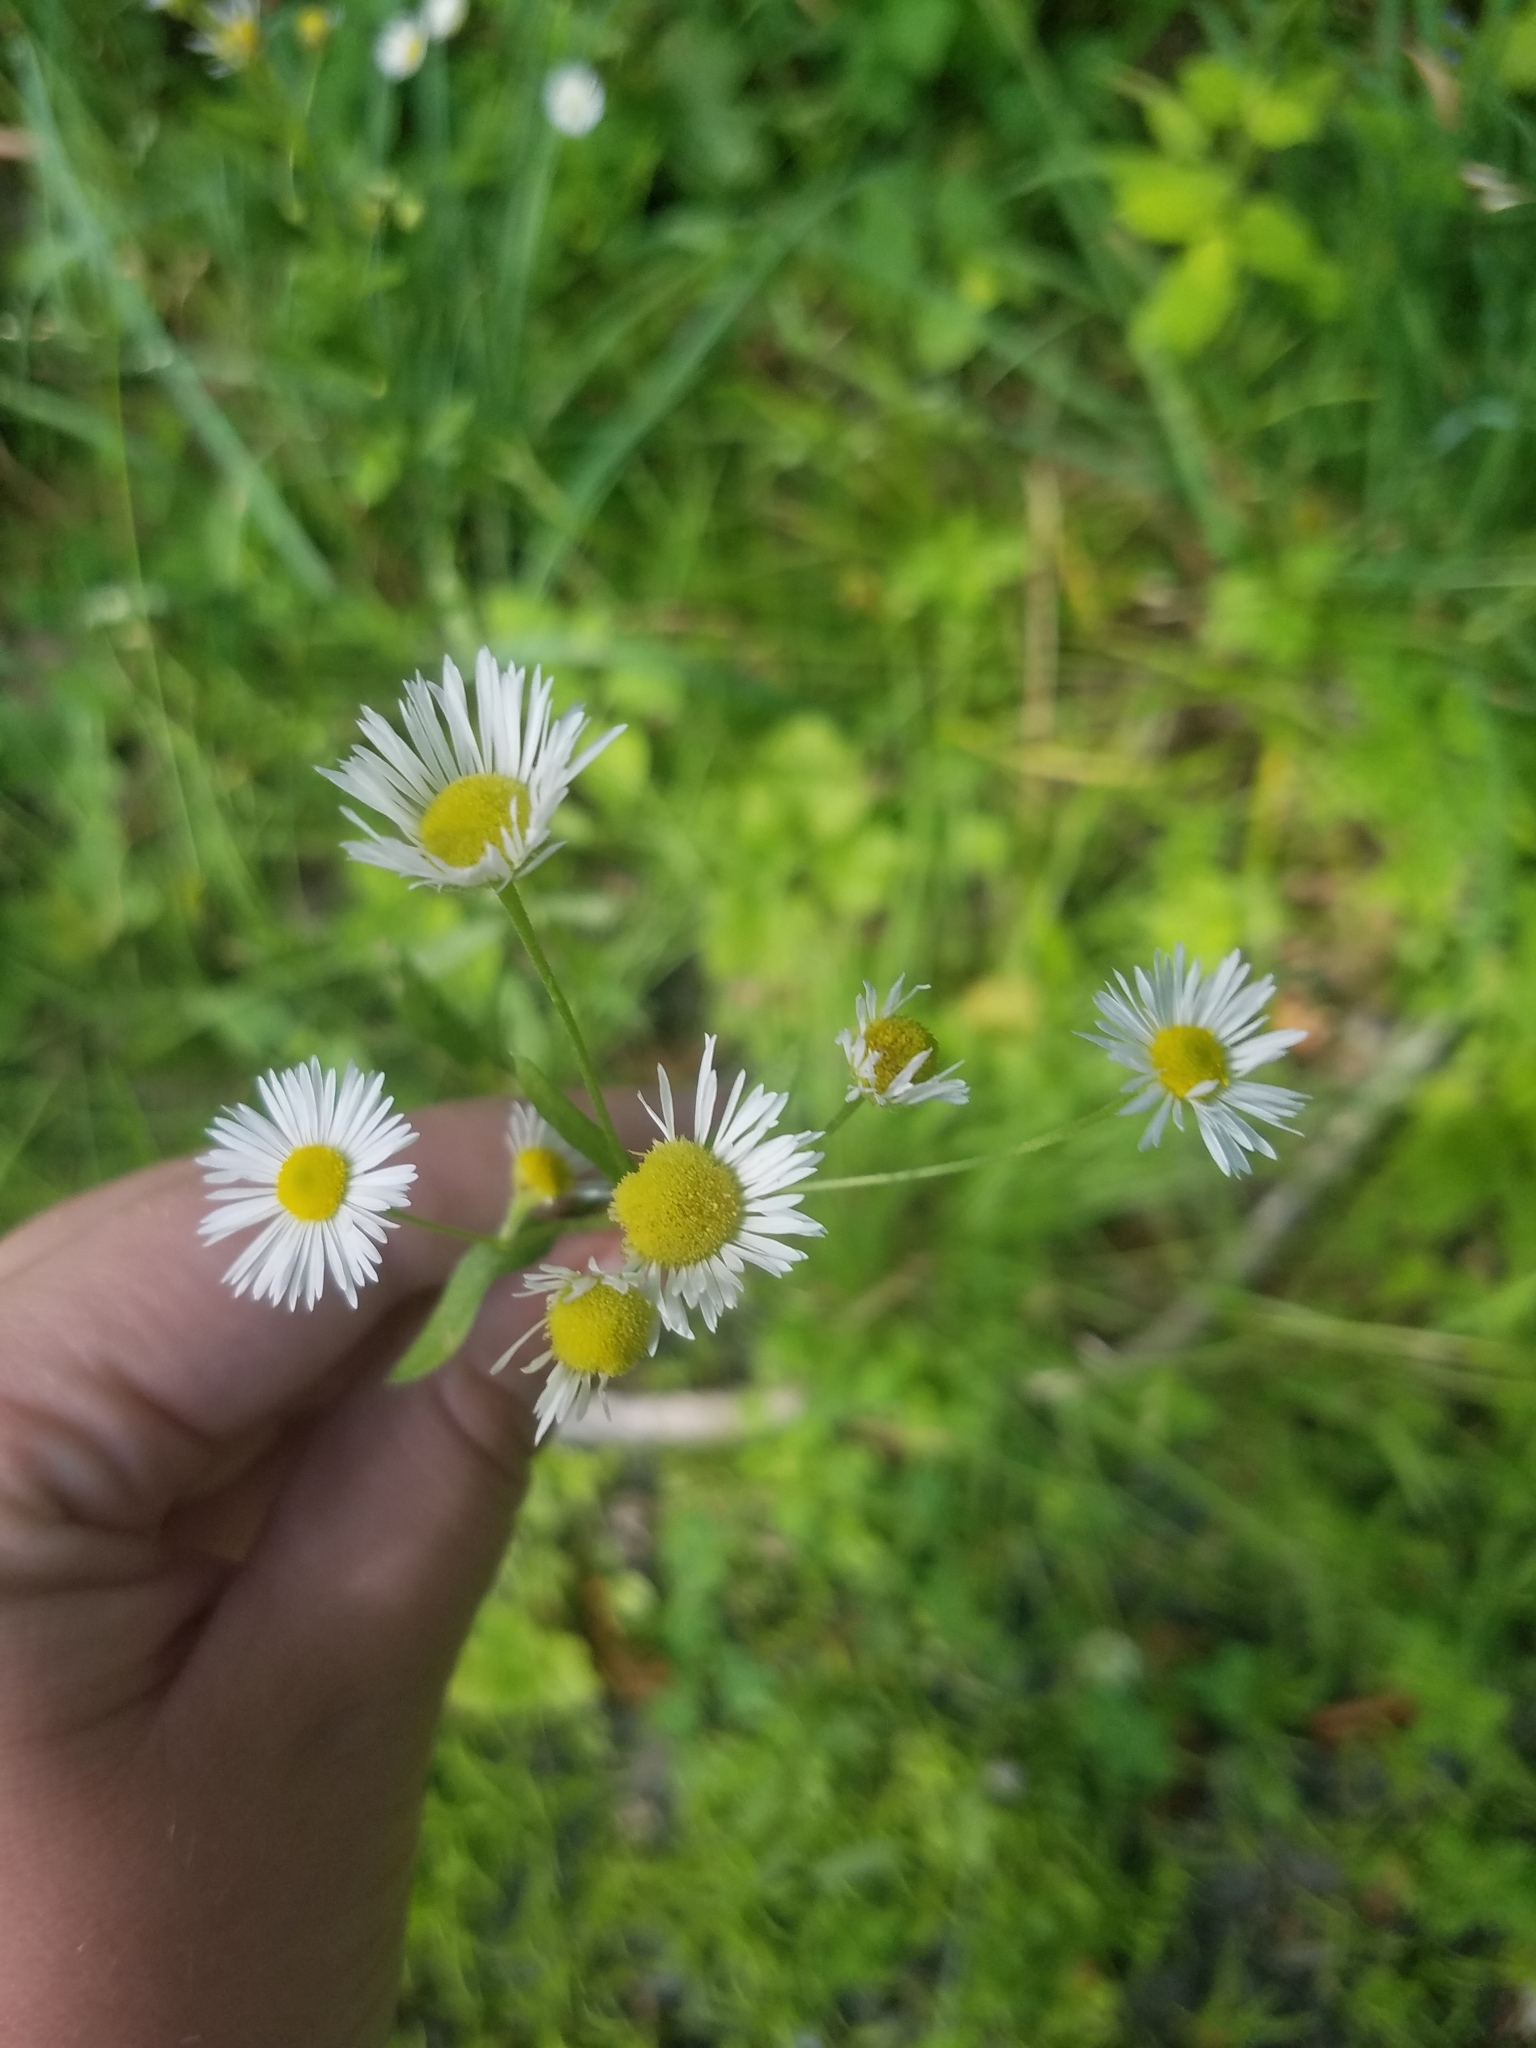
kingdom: Plantae
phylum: Tracheophyta
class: Magnoliopsida
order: Asterales
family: Asteraceae
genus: Erigeron
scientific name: Erigeron strigosus
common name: Common eastern fleabane
